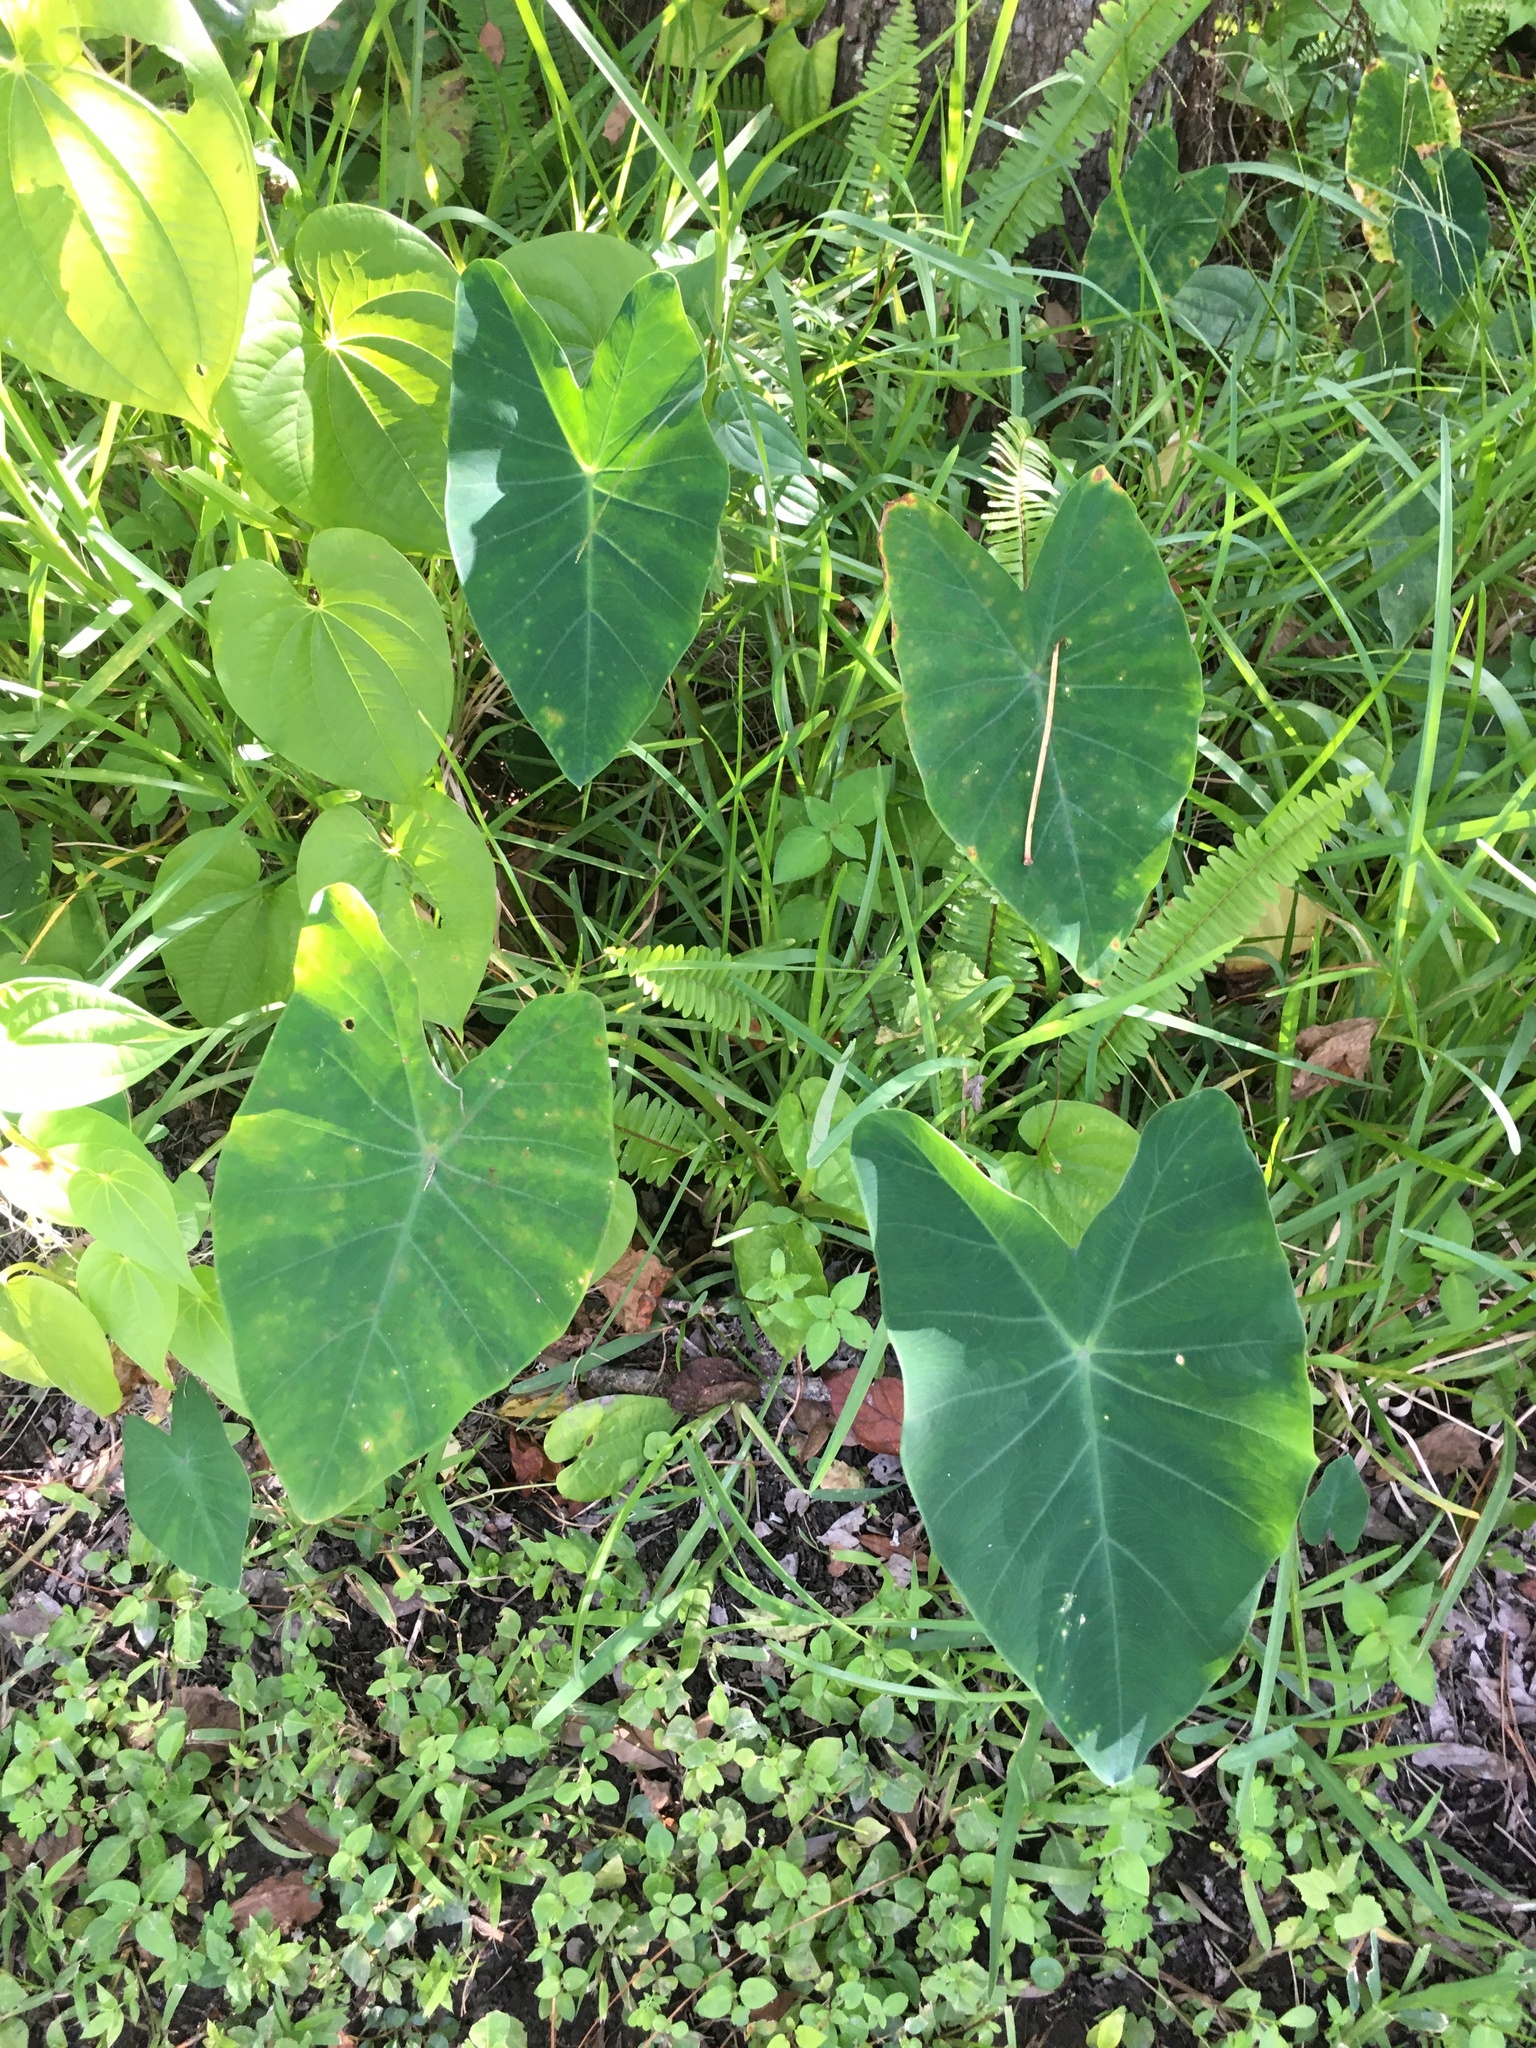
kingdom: Plantae
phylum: Tracheophyta
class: Liliopsida
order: Alismatales
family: Araceae
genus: Colocasia
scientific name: Colocasia esculenta
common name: Taro
